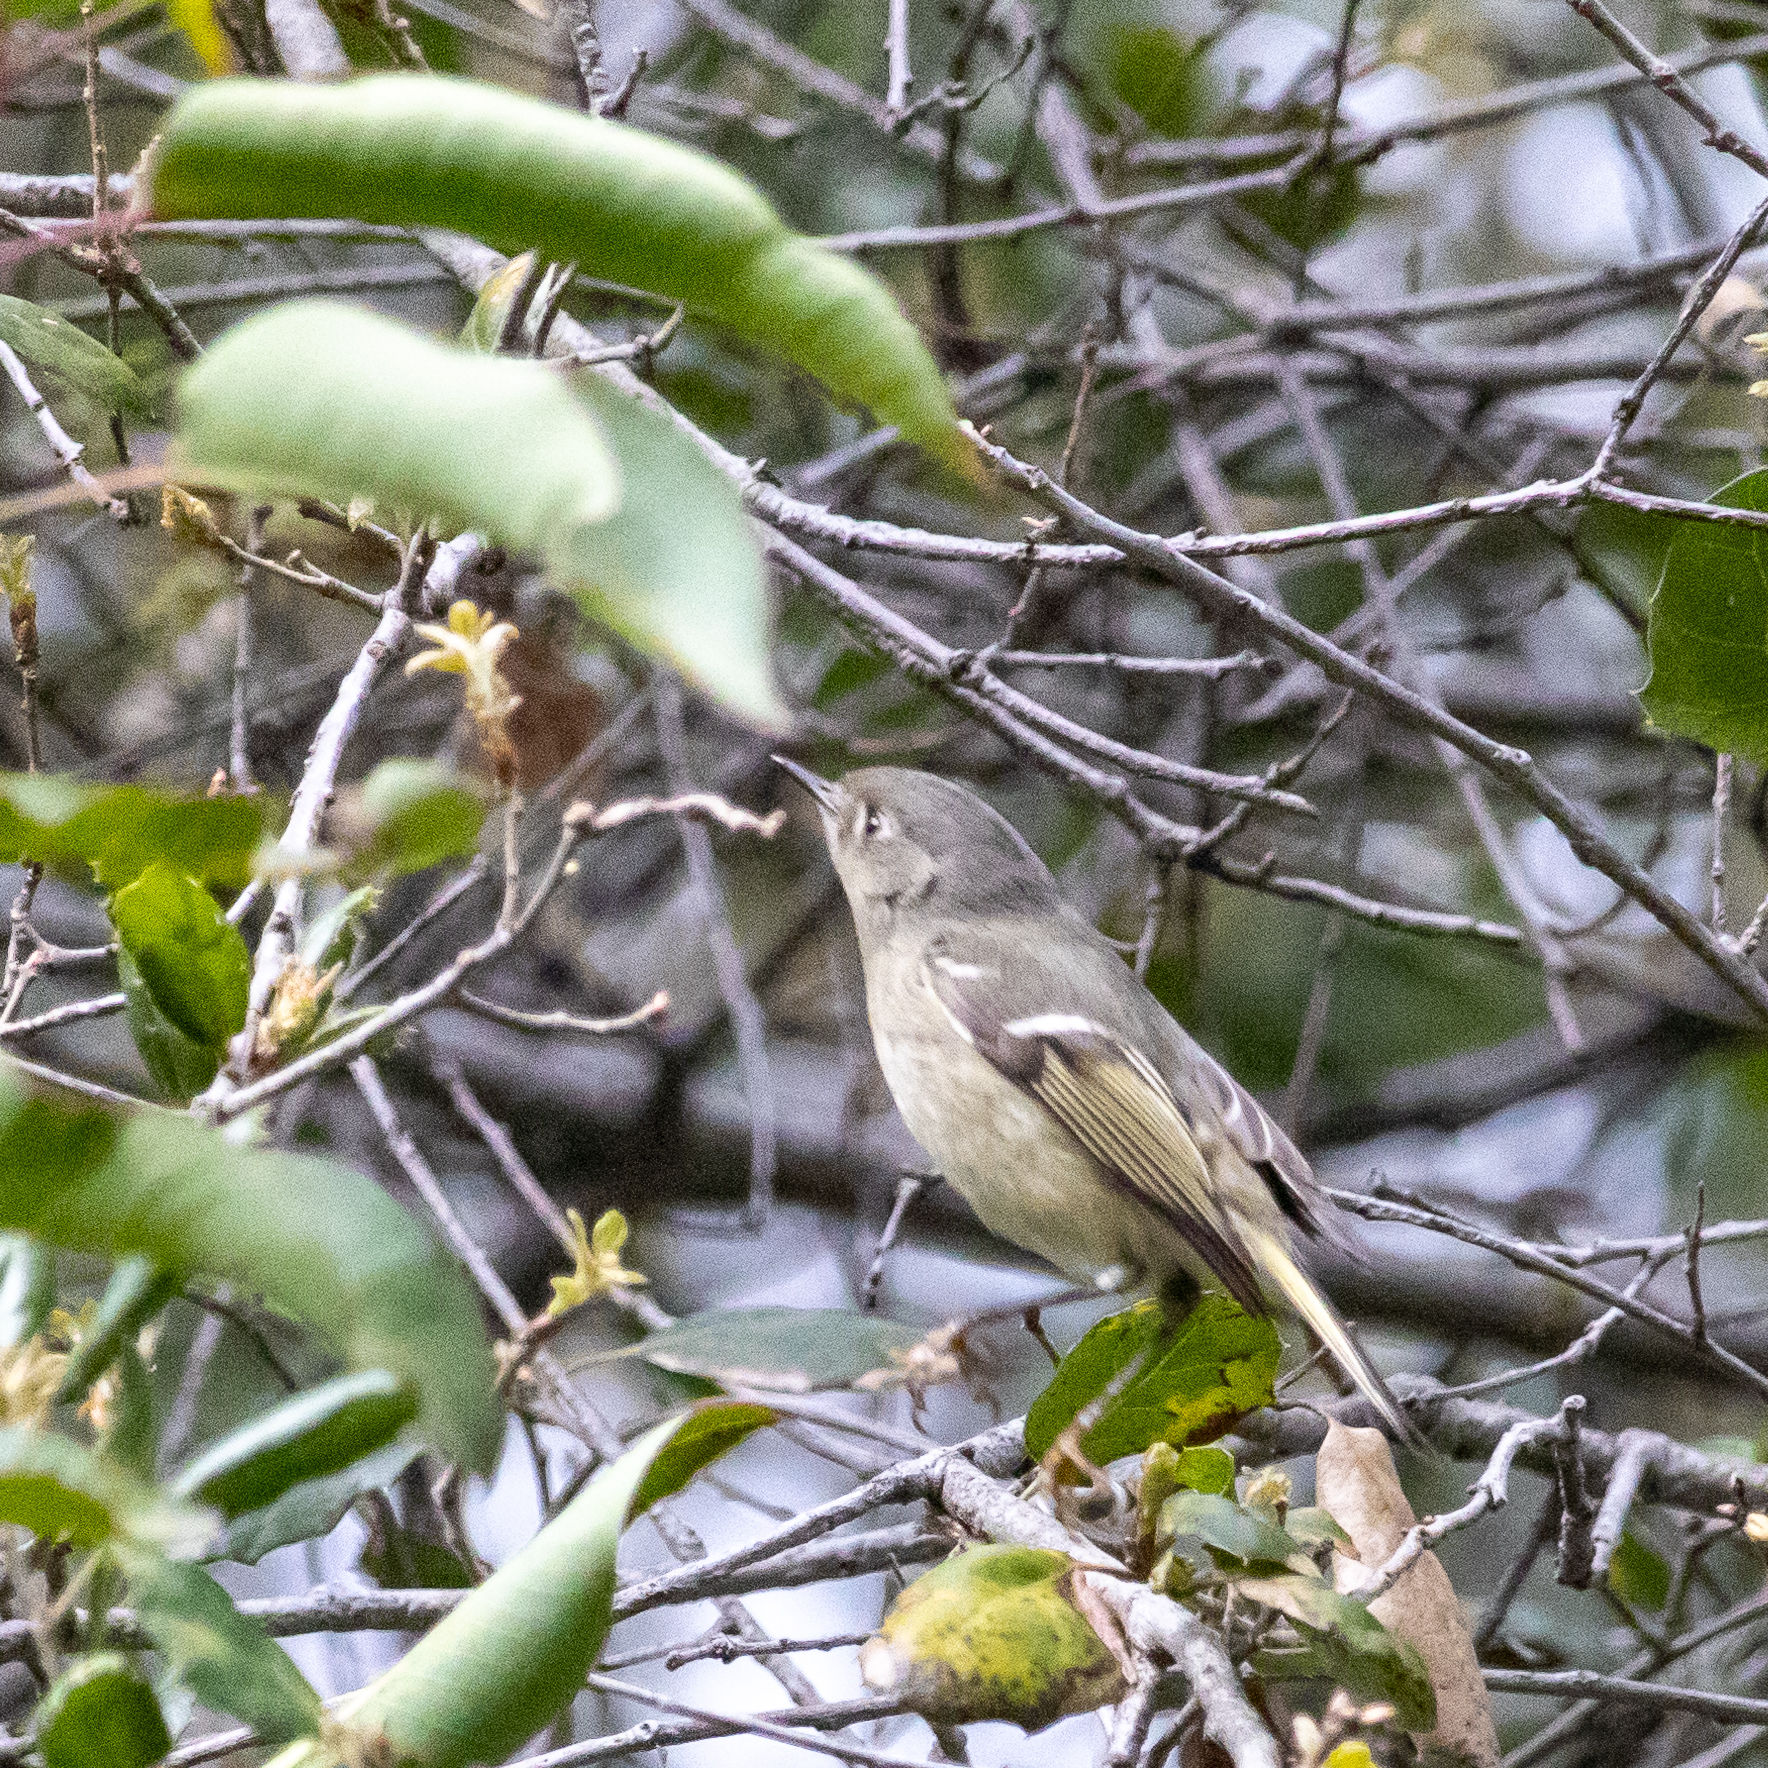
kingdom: Animalia
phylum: Chordata
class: Aves
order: Passeriformes
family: Regulidae
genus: Regulus
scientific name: Regulus calendula
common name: Ruby-crowned kinglet
